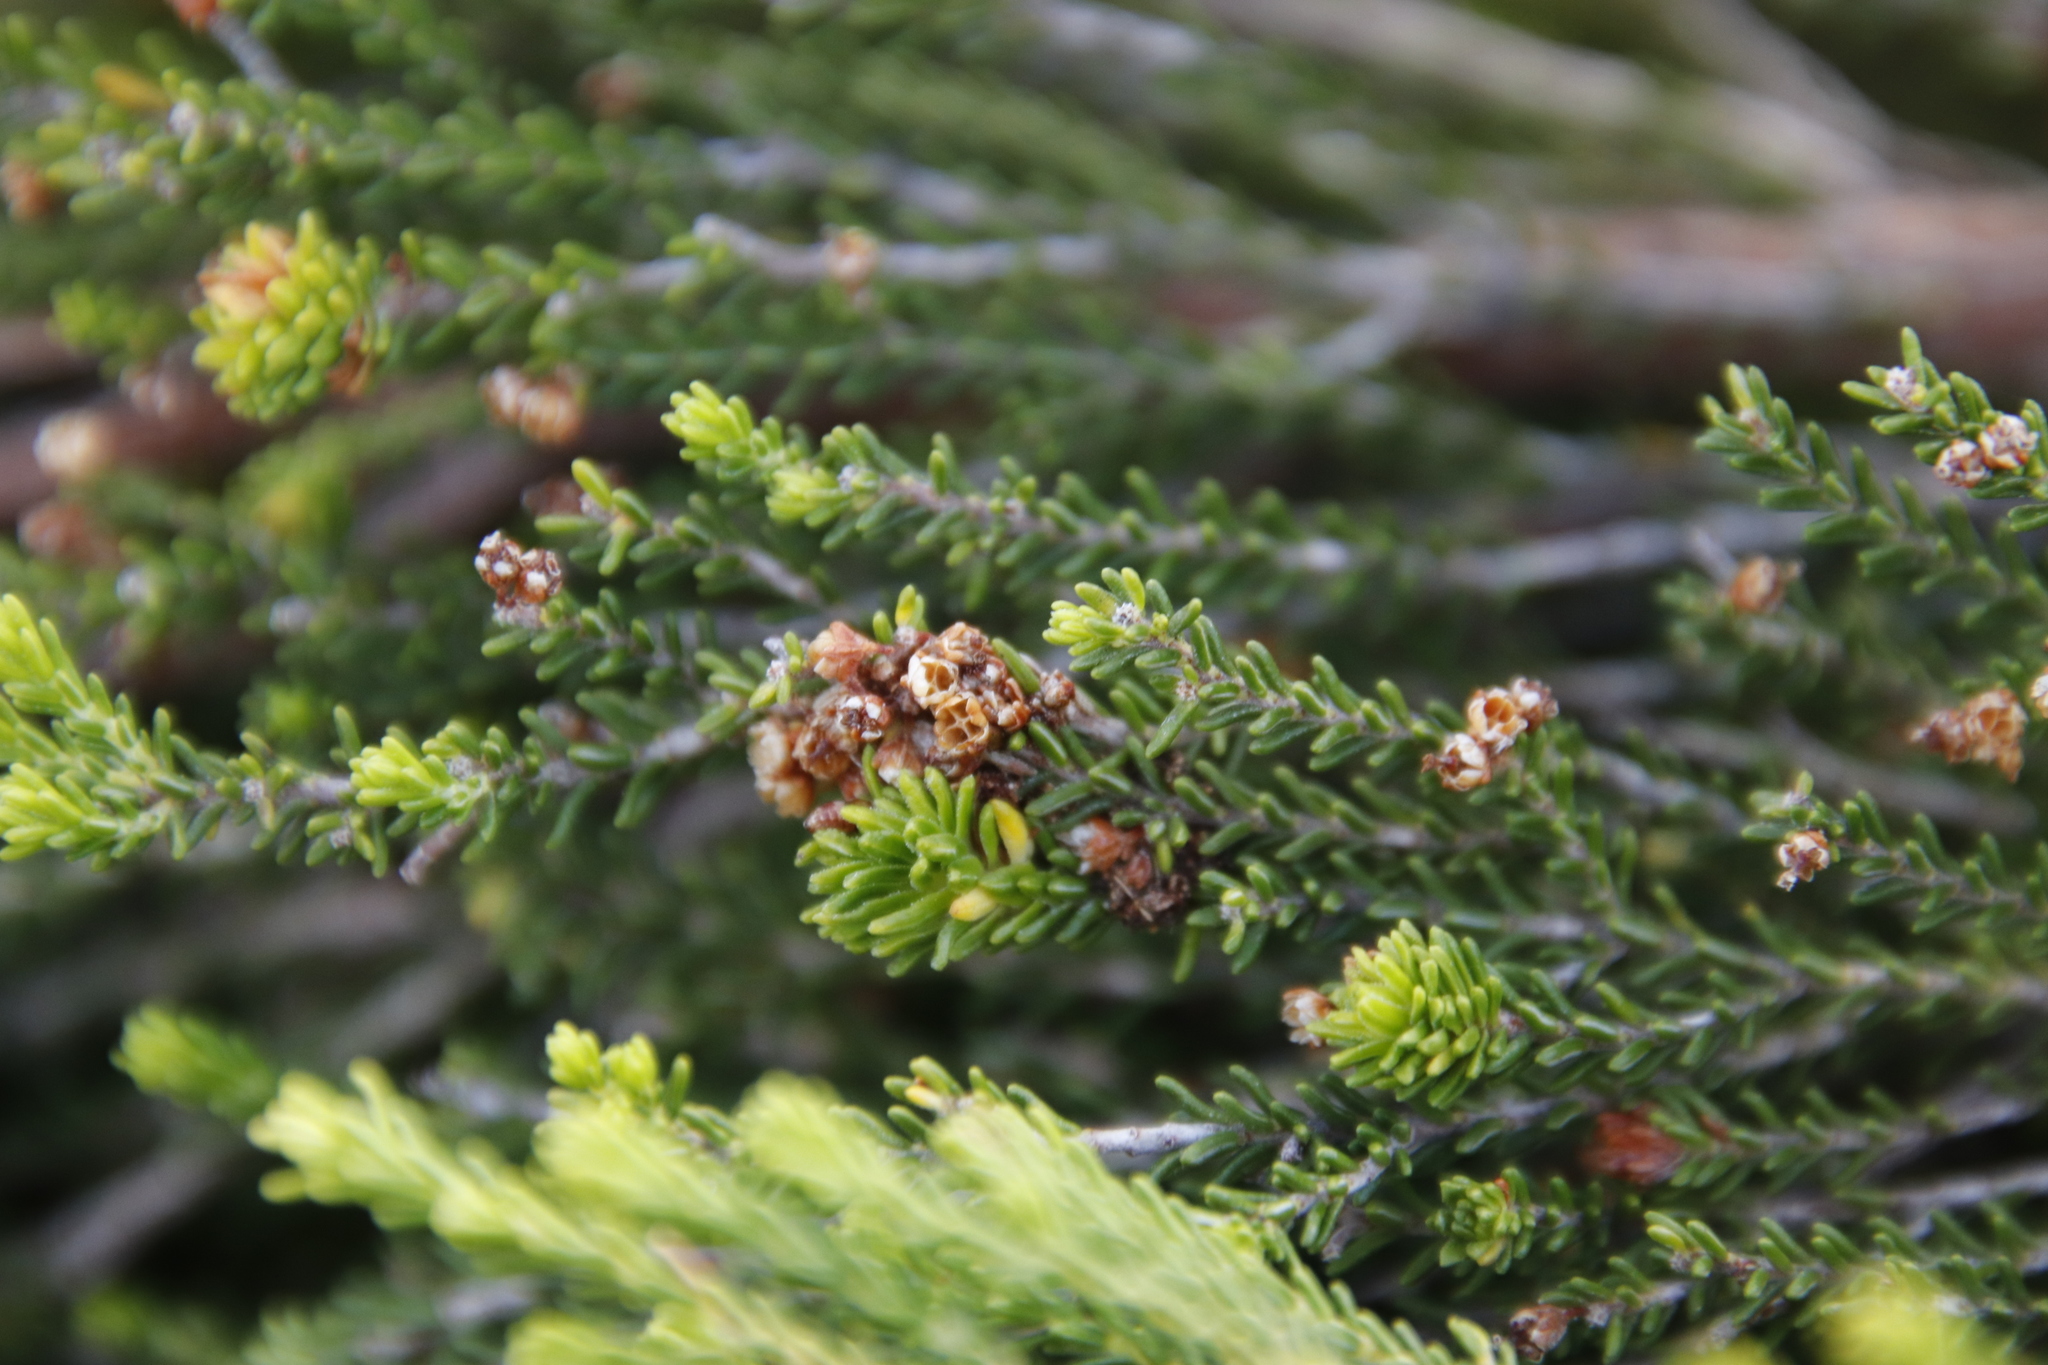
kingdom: Plantae
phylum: Tracheophyta
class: Magnoliopsida
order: Ericales
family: Ericaceae
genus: Erica
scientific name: Erica tristis
